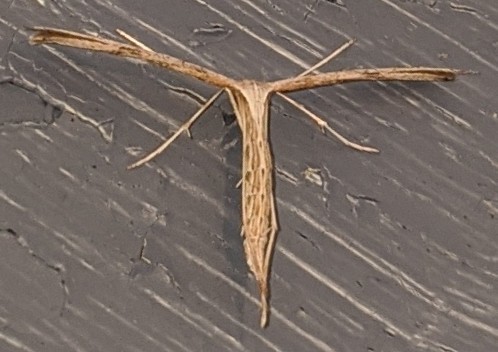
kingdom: Animalia
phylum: Arthropoda
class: Insecta
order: Lepidoptera
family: Pterophoridae
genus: Emmelina
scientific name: Emmelina monodactyla
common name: Common plume
